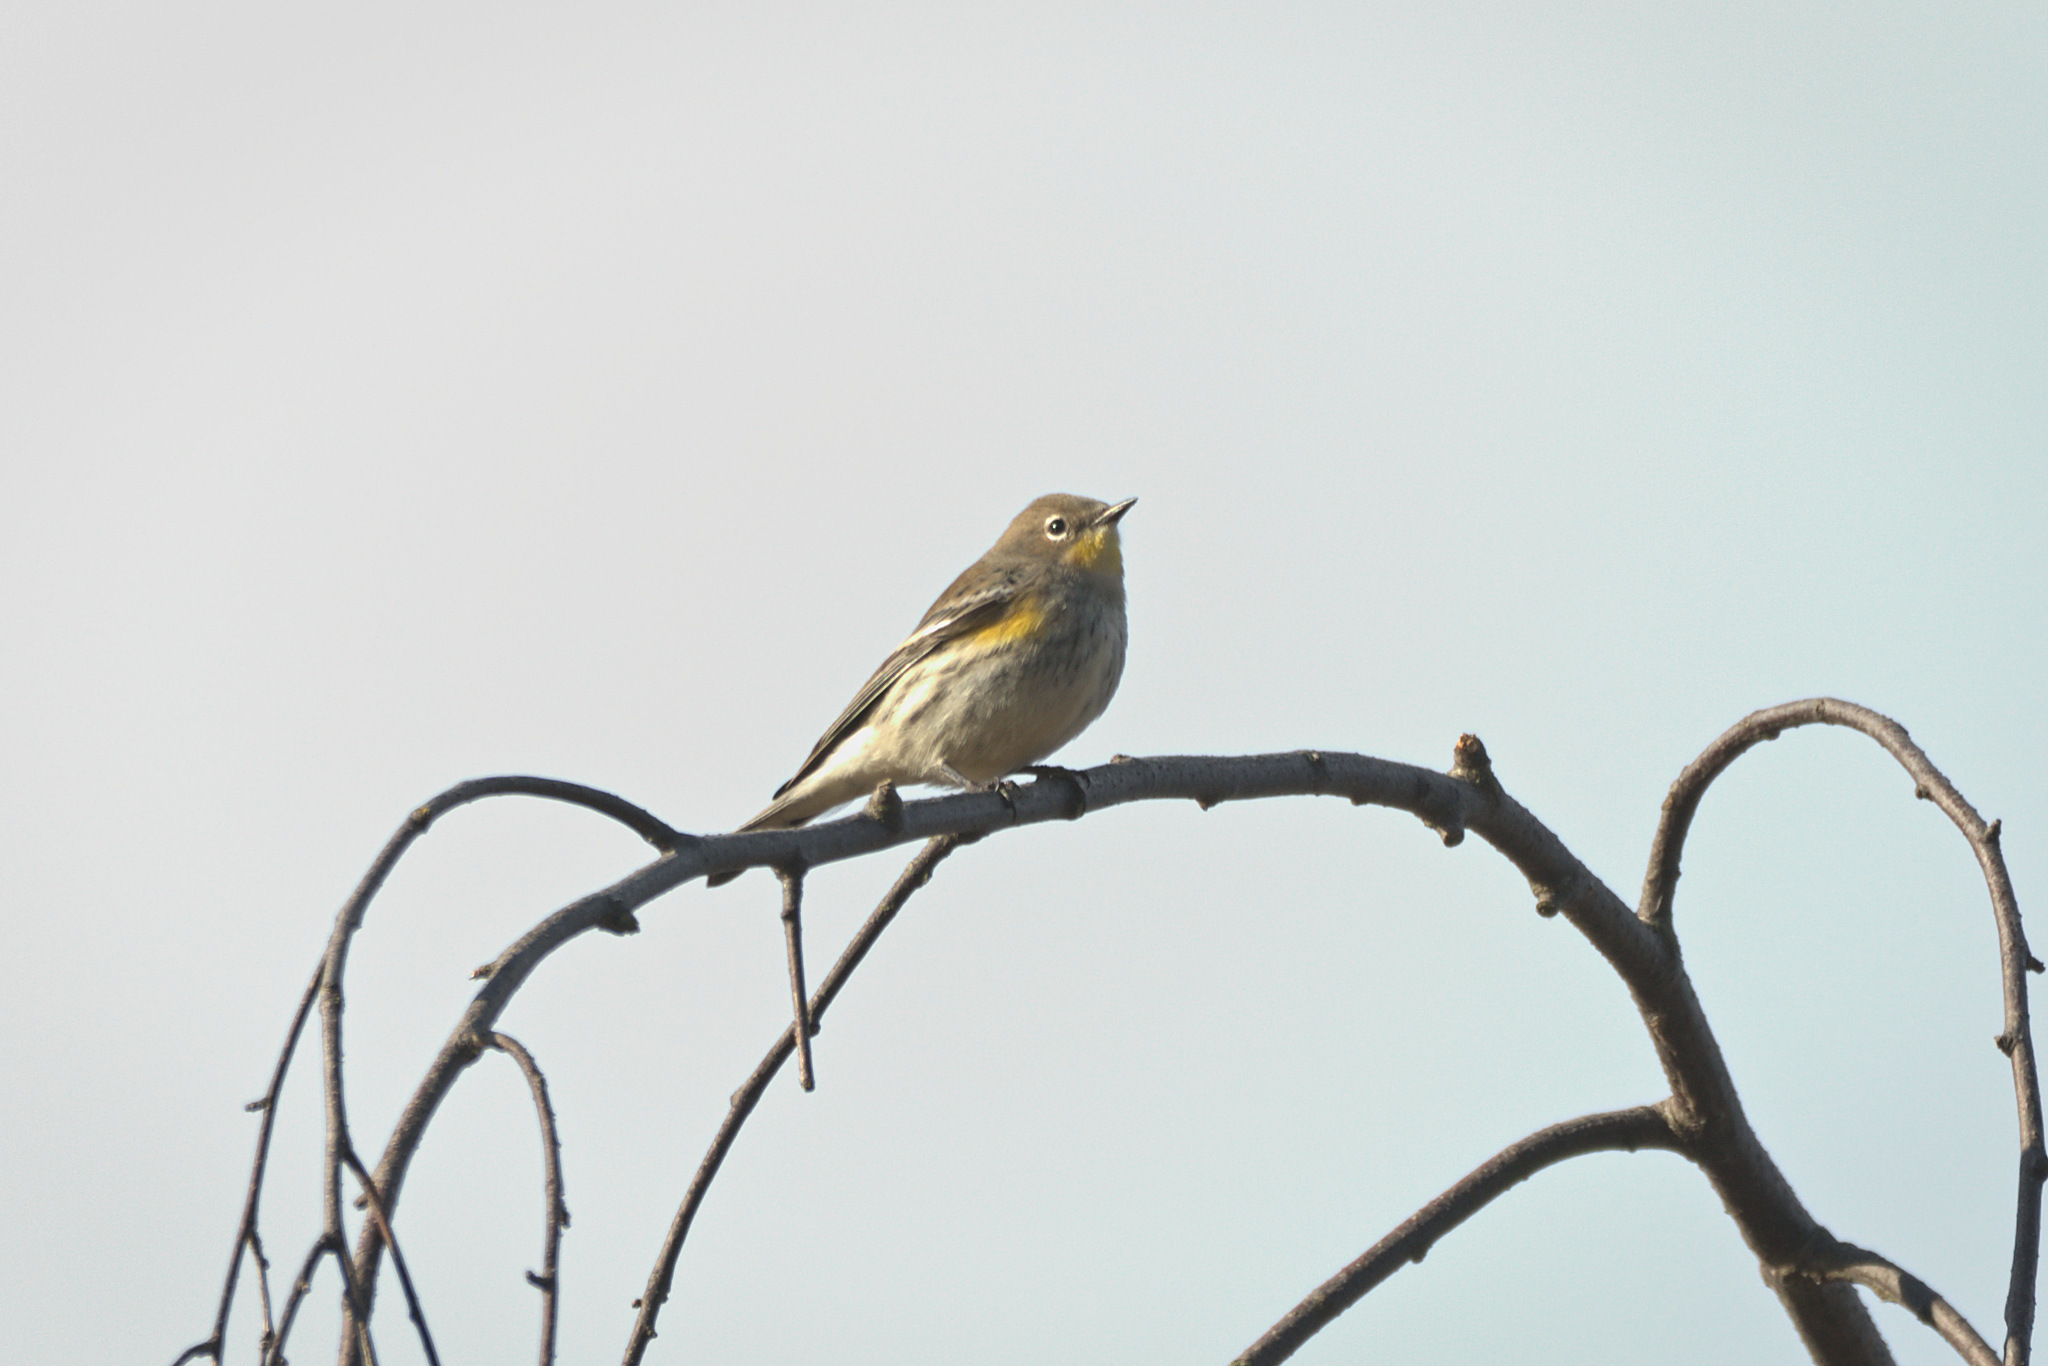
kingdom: Animalia
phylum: Chordata
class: Aves
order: Passeriformes
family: Parulidae
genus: Setophaga
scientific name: Setophaga auduboni
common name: Audubon's warbler
